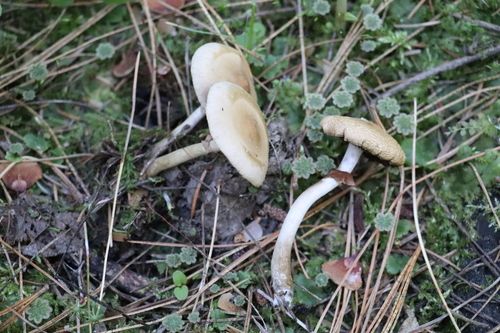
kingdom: Fungi
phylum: Basidiomycota
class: Agaricomycetes
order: Agaricales
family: Strophariaceae
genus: Agrocybe
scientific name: Agrocybe praecox
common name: Spring fieldcap
